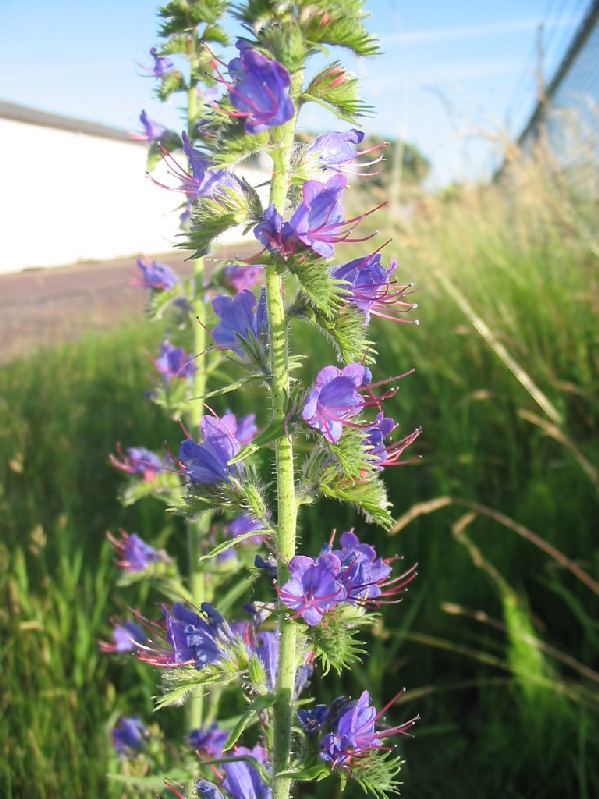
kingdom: Plantae
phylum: Tracheophyta
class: Magnoliopsida
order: Boraginales
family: Boraginaceae
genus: Echium
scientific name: Echium vulgare
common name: Common viper's bugloss
